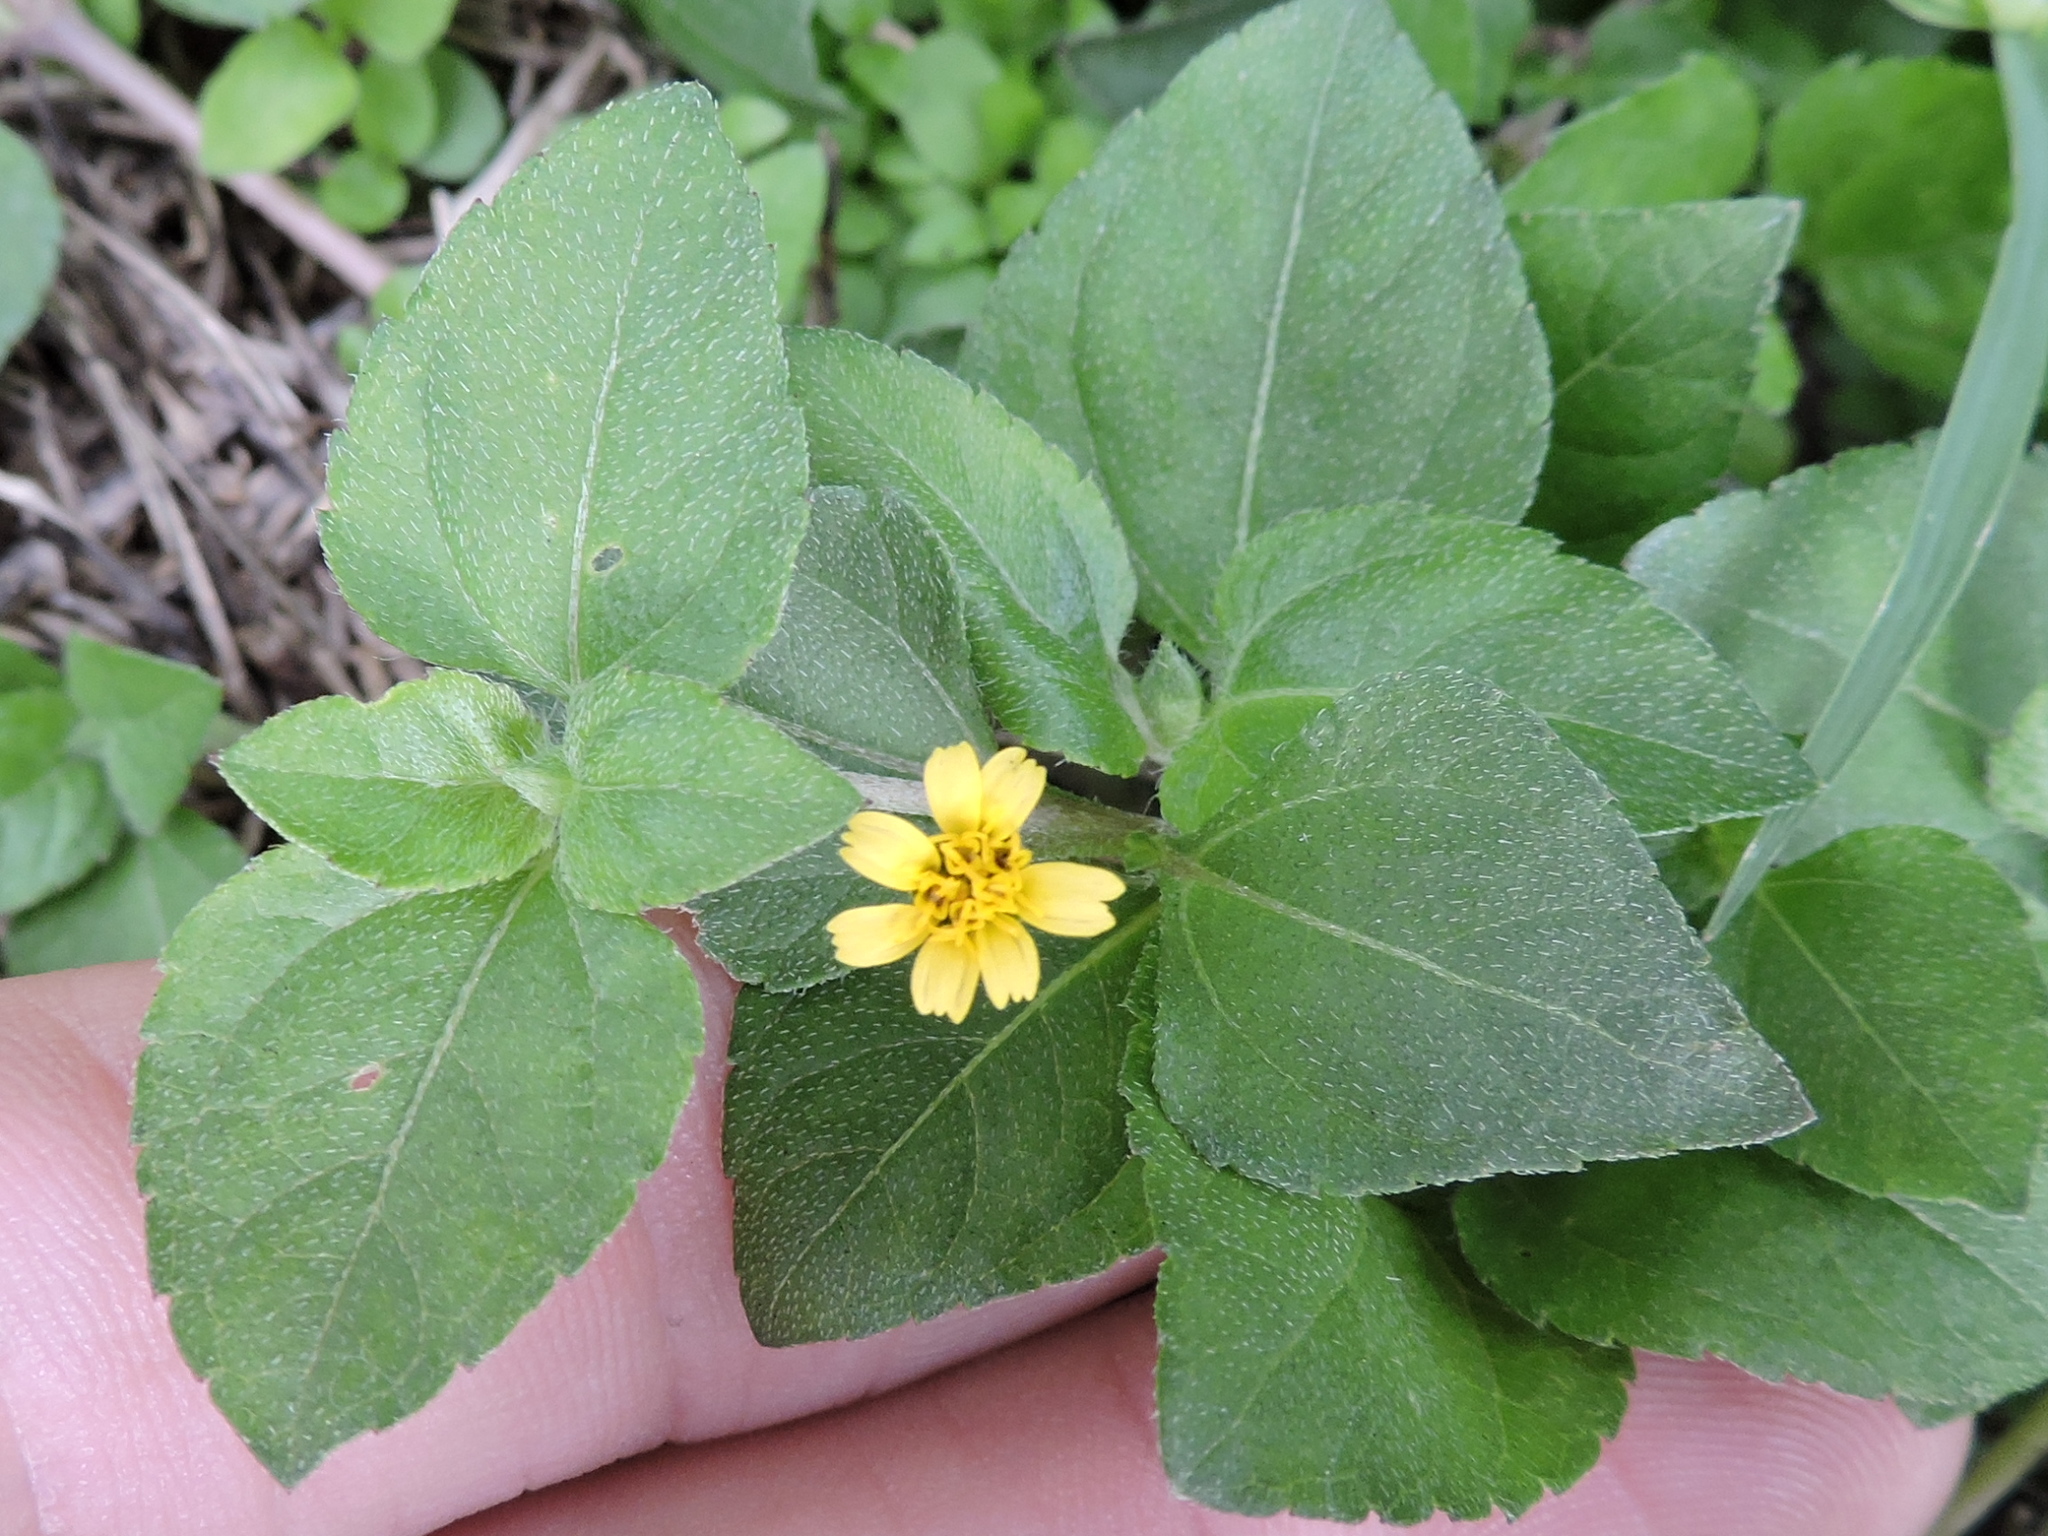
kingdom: Plantae
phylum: Tracheophyta
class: Magnoliopsida
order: Asterales
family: Asteraceae
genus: Calyptocarpus
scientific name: Calyptocarpus vialis
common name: Straggler daisy
